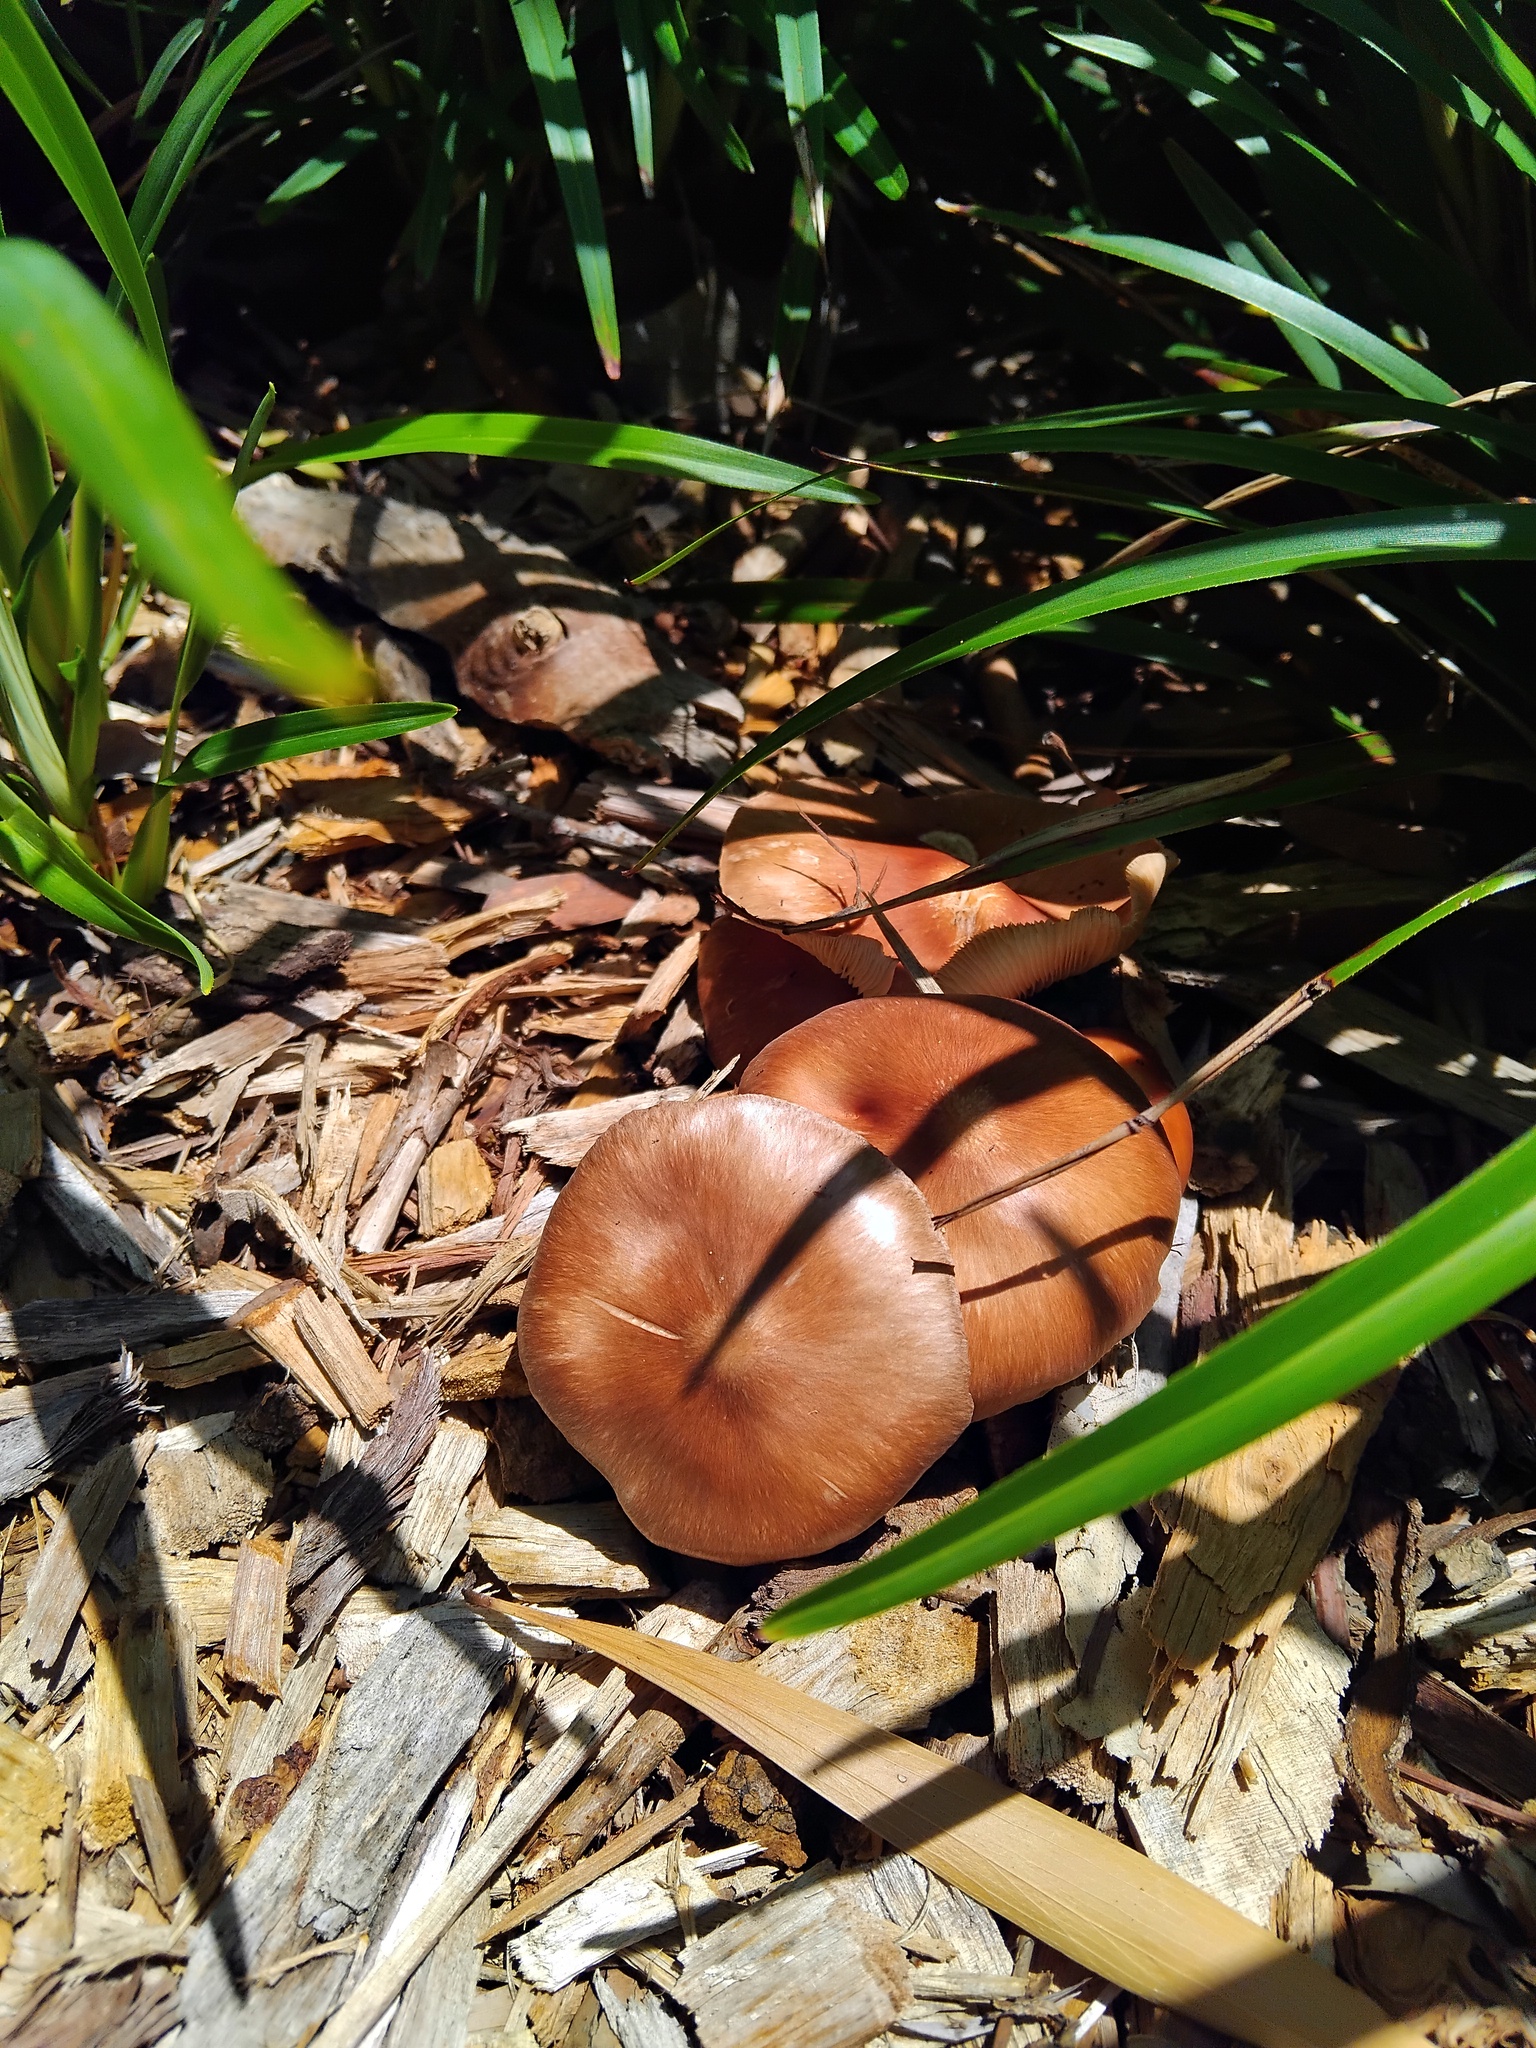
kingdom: Fungi
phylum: Basidiomycota
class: Agaricomycetes
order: Agaricales
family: Omphalotaceae
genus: Collybiopsis
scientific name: Collybiopsis luxurians
